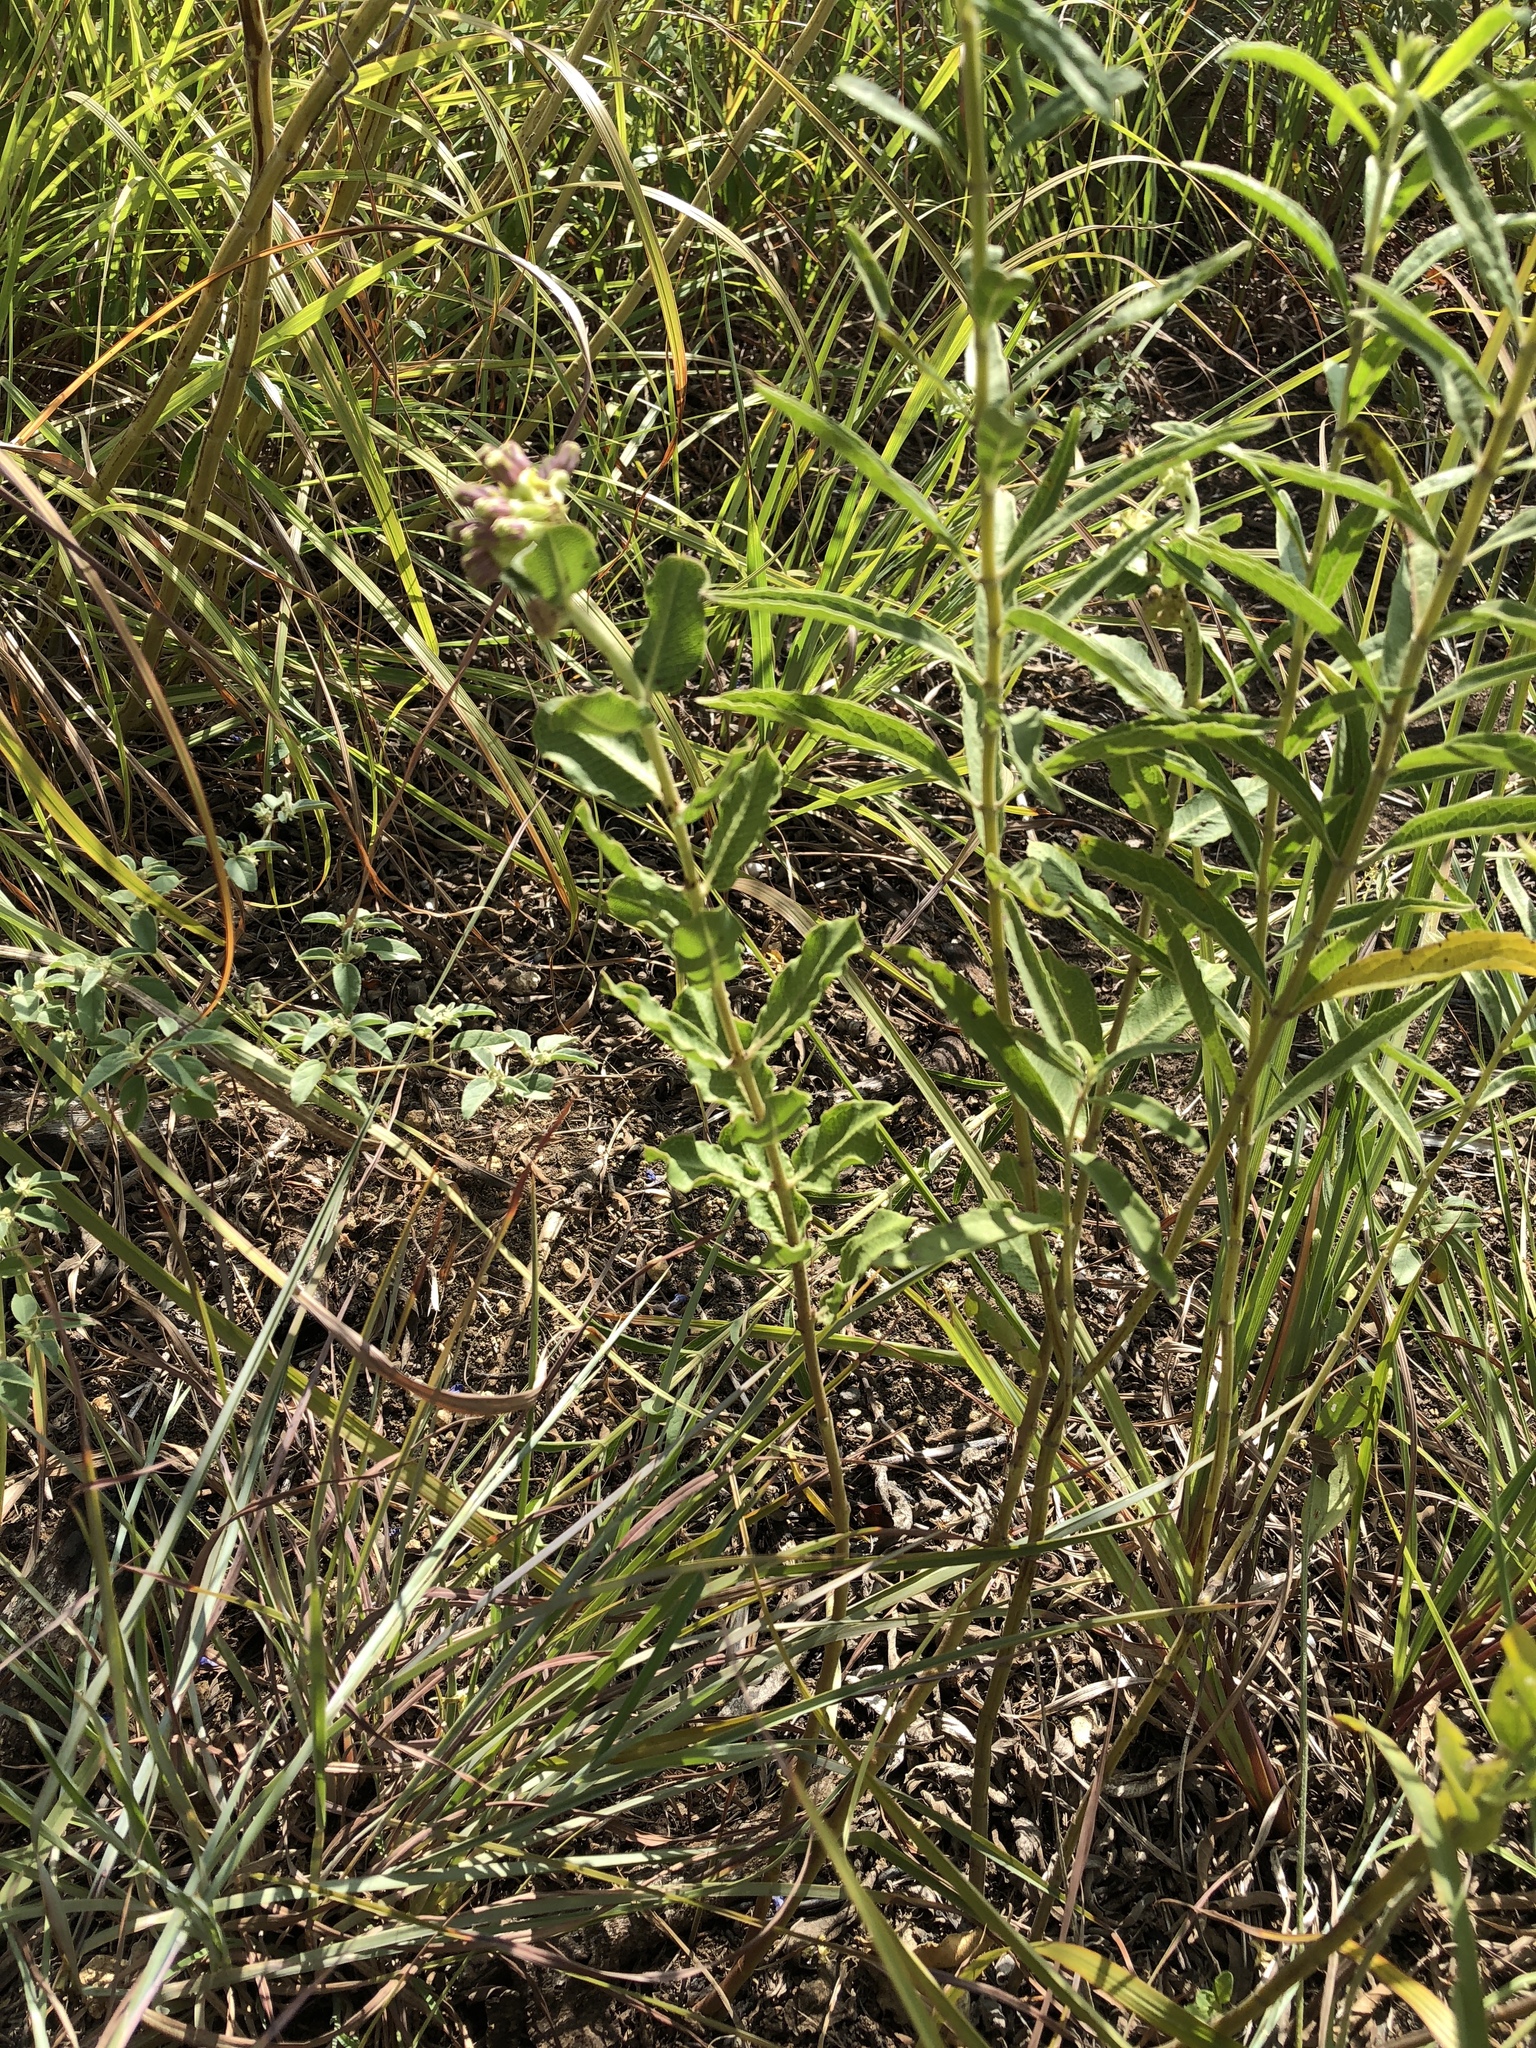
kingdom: Plantae
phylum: Tracheophyta
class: Magnoliopsida
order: Gentianales
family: Apocynaceae
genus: Asclepias
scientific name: Asclepias viridiflora
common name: Green comet milkweed
